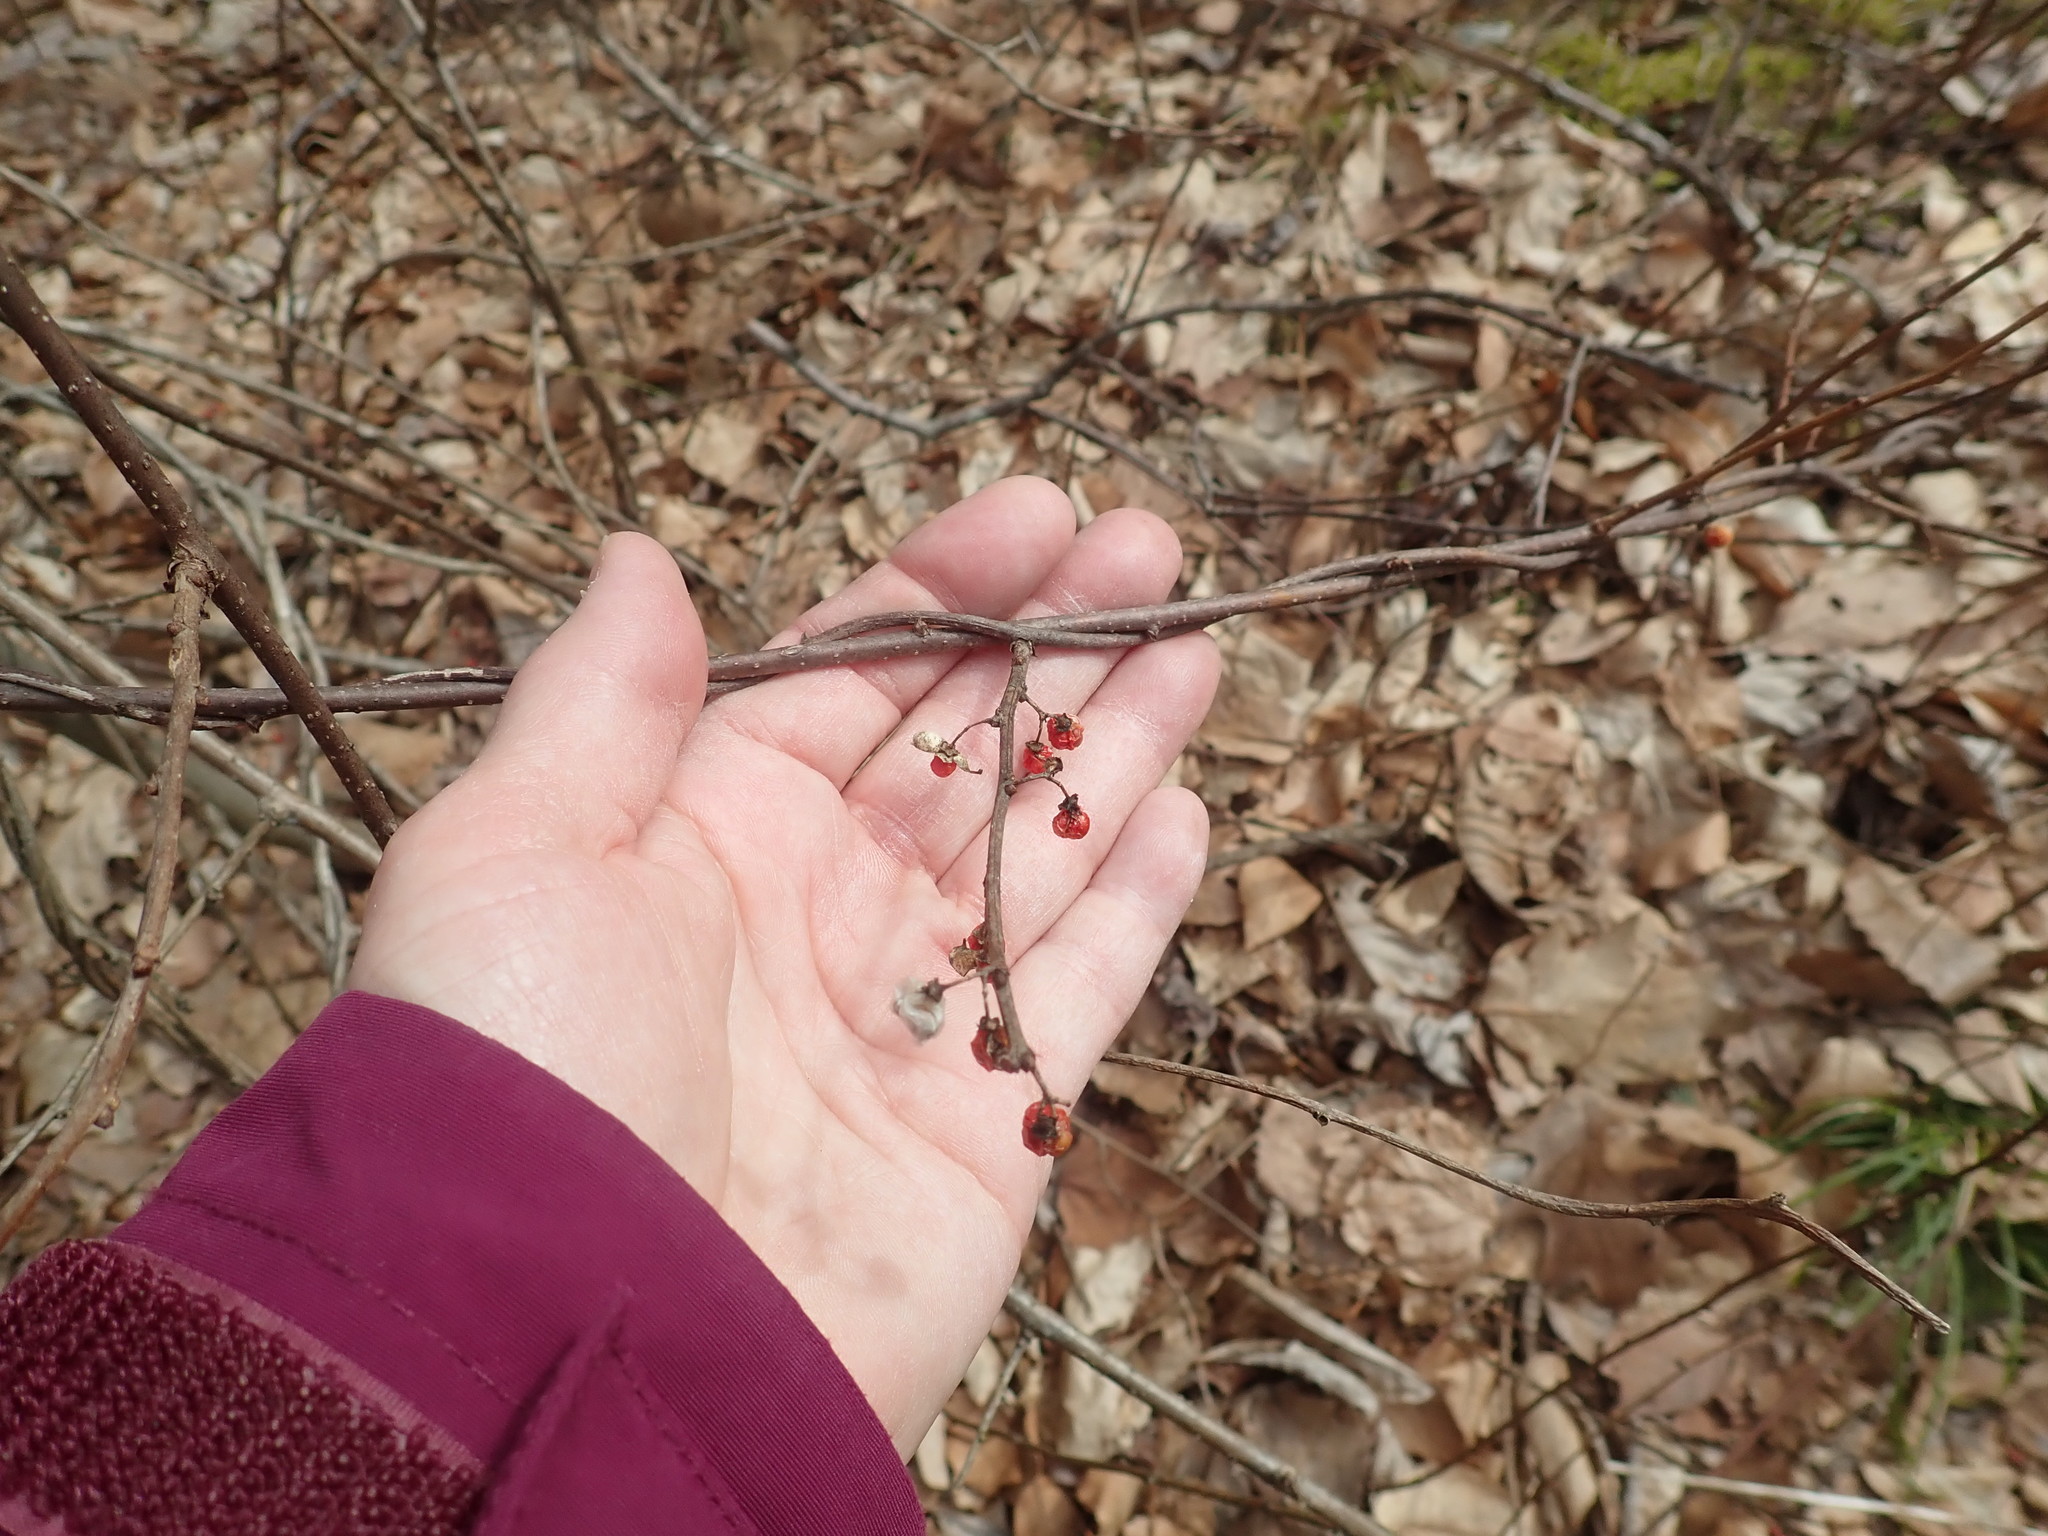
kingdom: Plantae
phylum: Tracheophyta
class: Magnoliopsida
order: Celastrales
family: Celastraceae
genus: Celastrus
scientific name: Celastrus orbiculatus
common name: Oriental bittersweet
